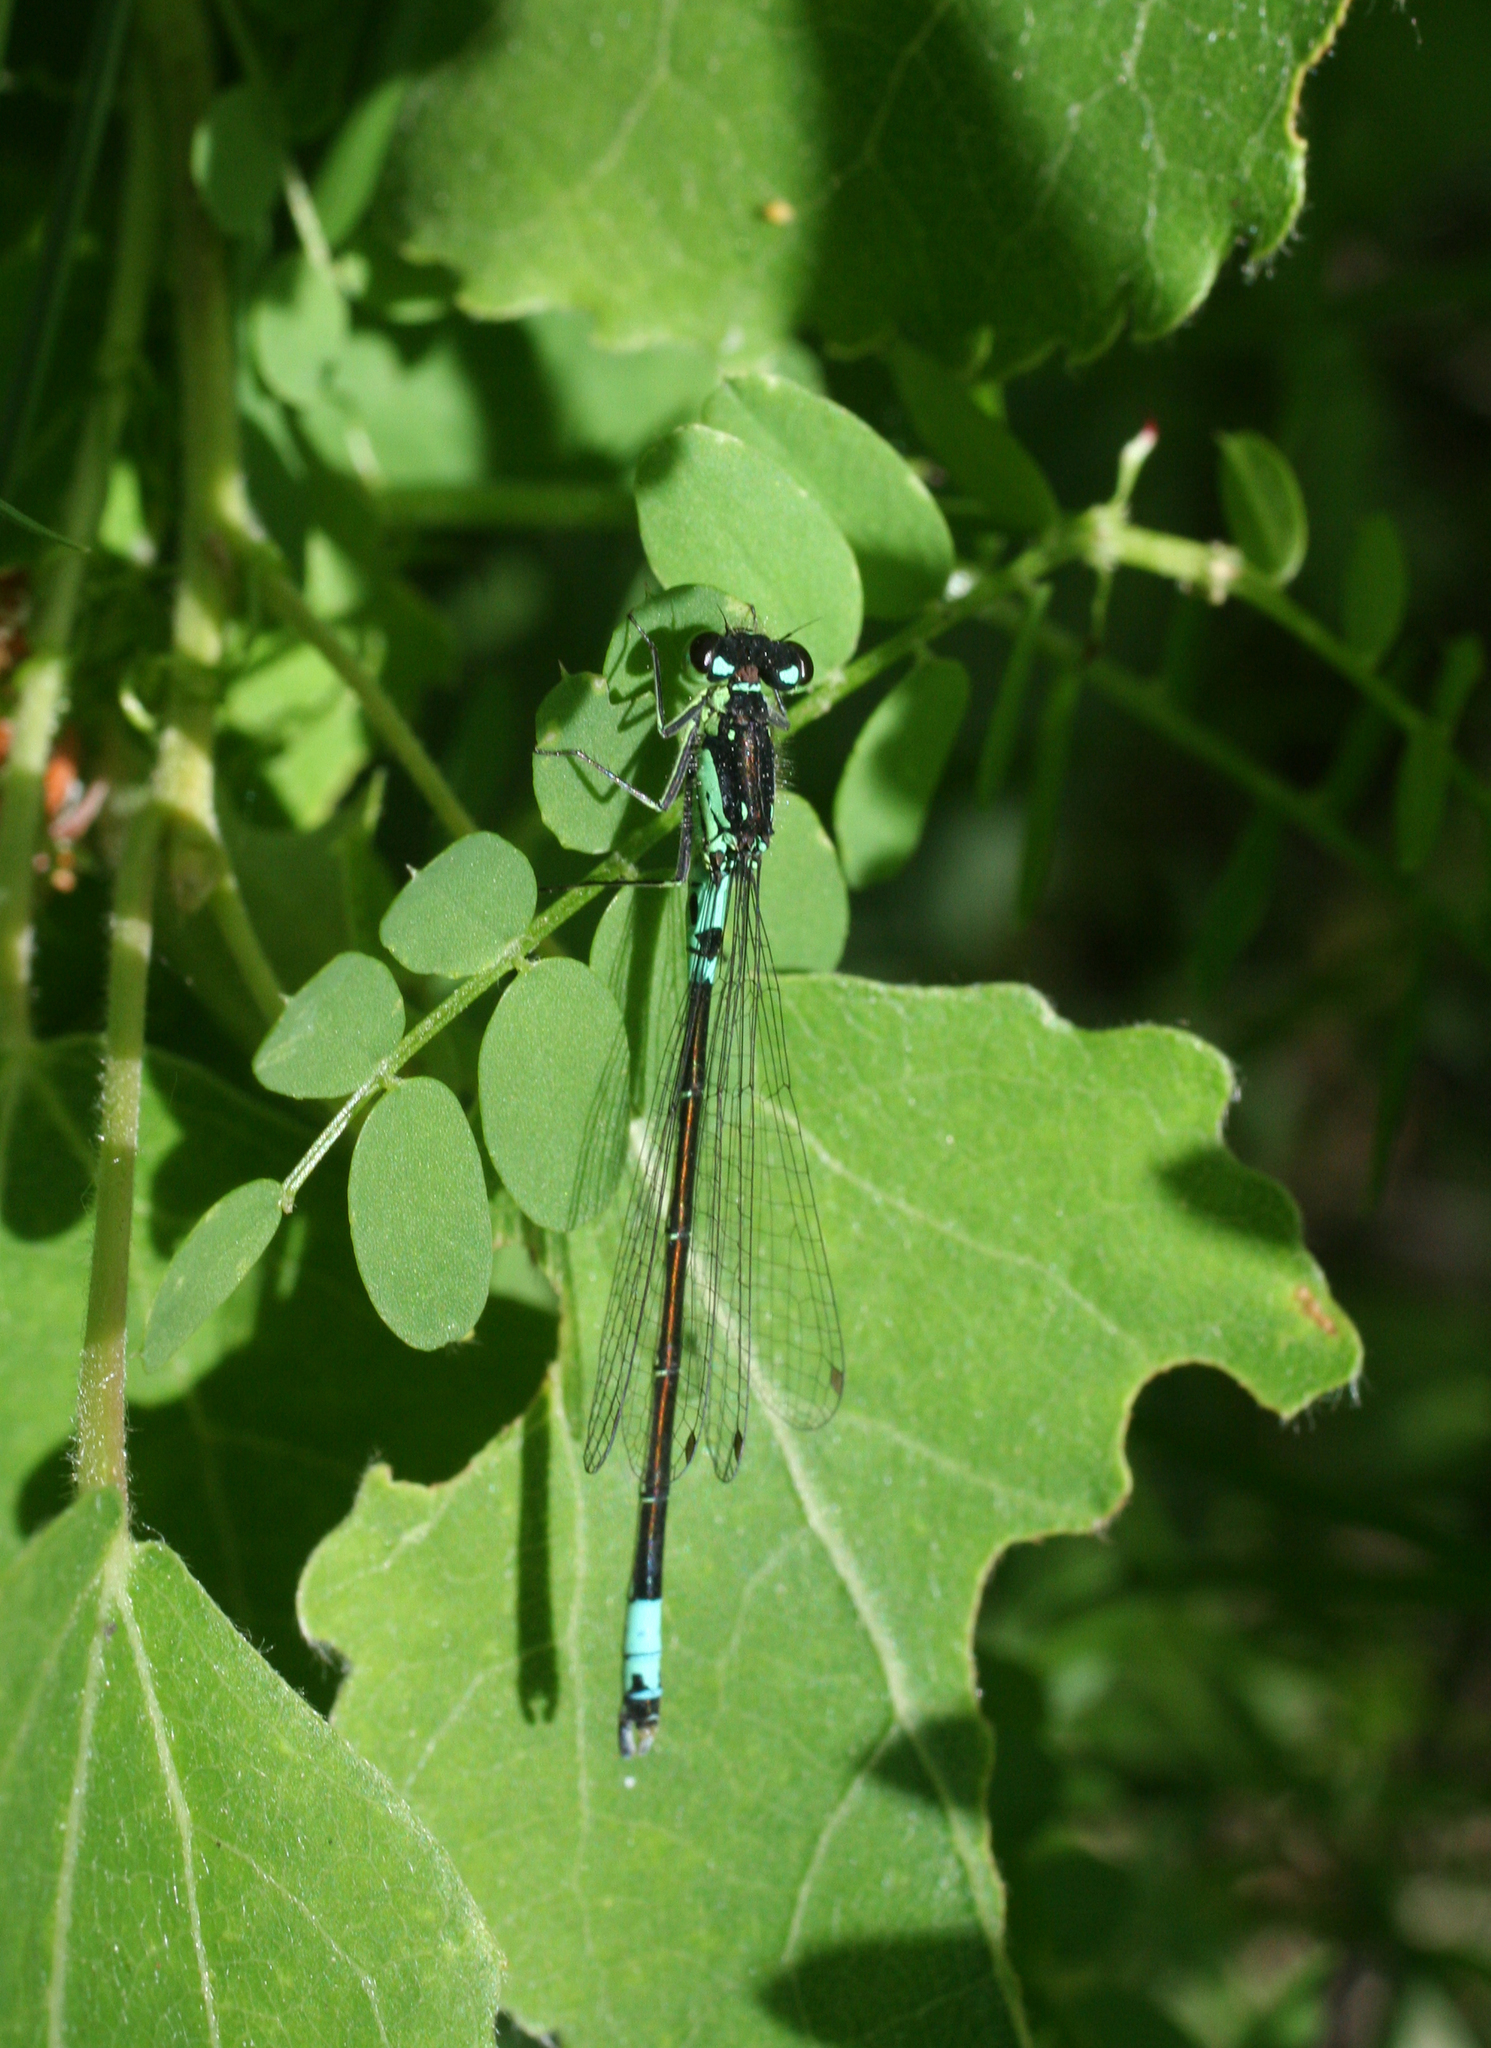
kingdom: Animalia
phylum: Arthropoda
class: Insecta
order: Odonata
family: Coenagrionidae
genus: Coenagrion
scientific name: Coenagrion armatum
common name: Dark bluet
